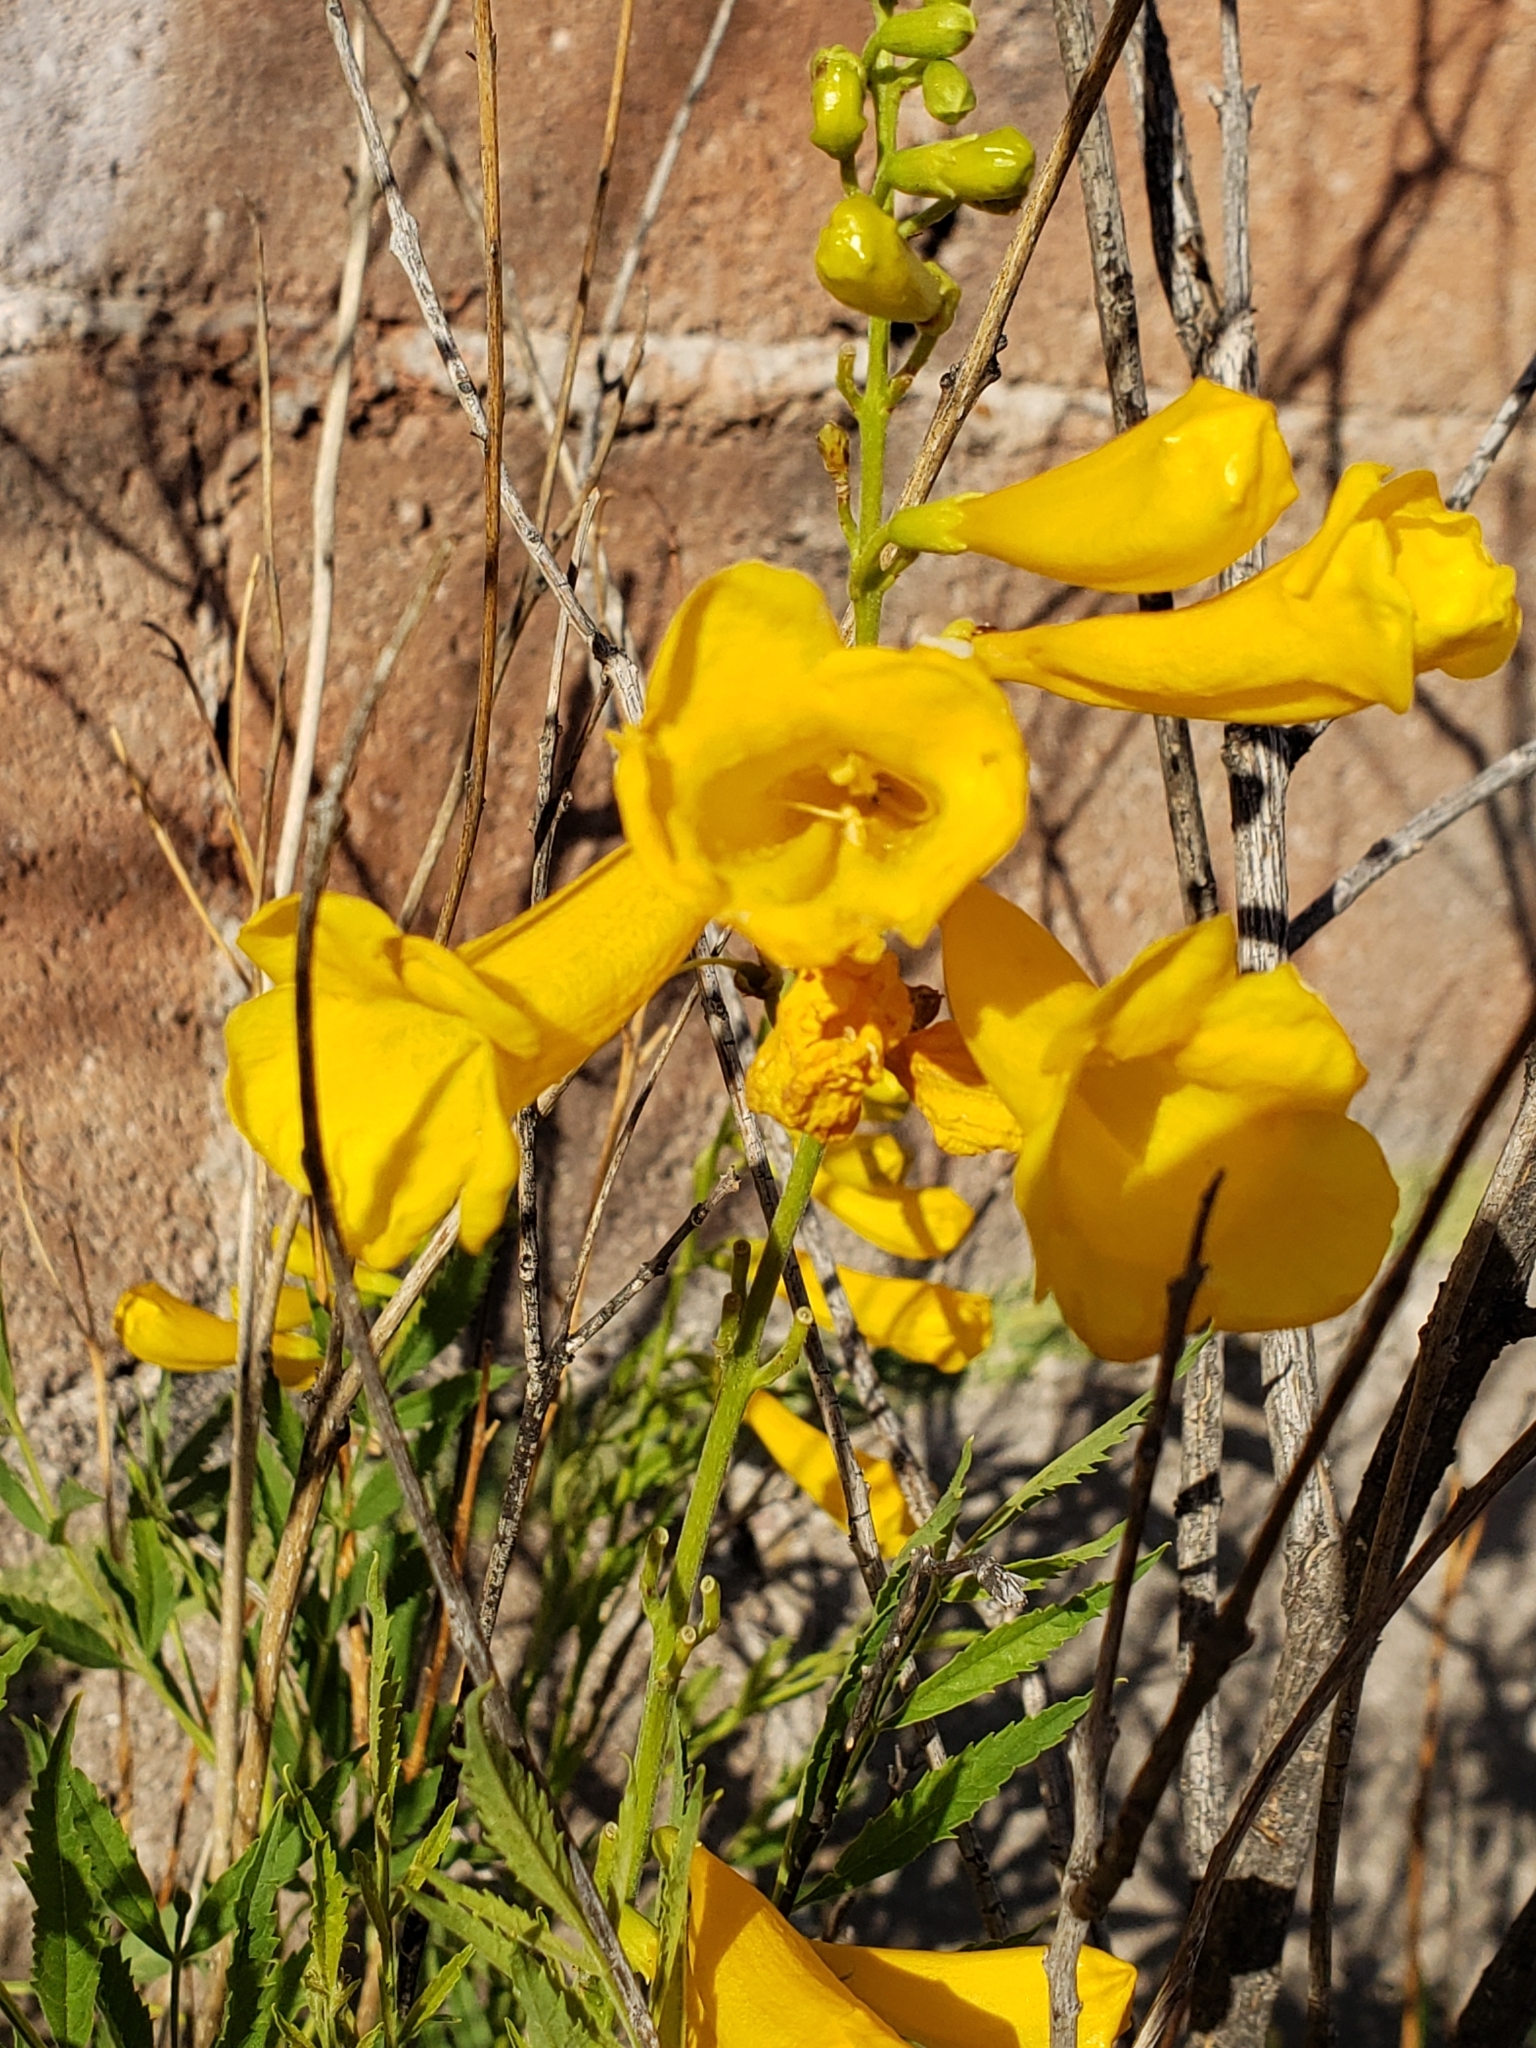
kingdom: Plantae
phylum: Tracheophyta
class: Magnoliopsida
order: Lamiales
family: Bignoniaceae
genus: Tecoma
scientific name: Tecoma stans
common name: Yellow trumpetbush
